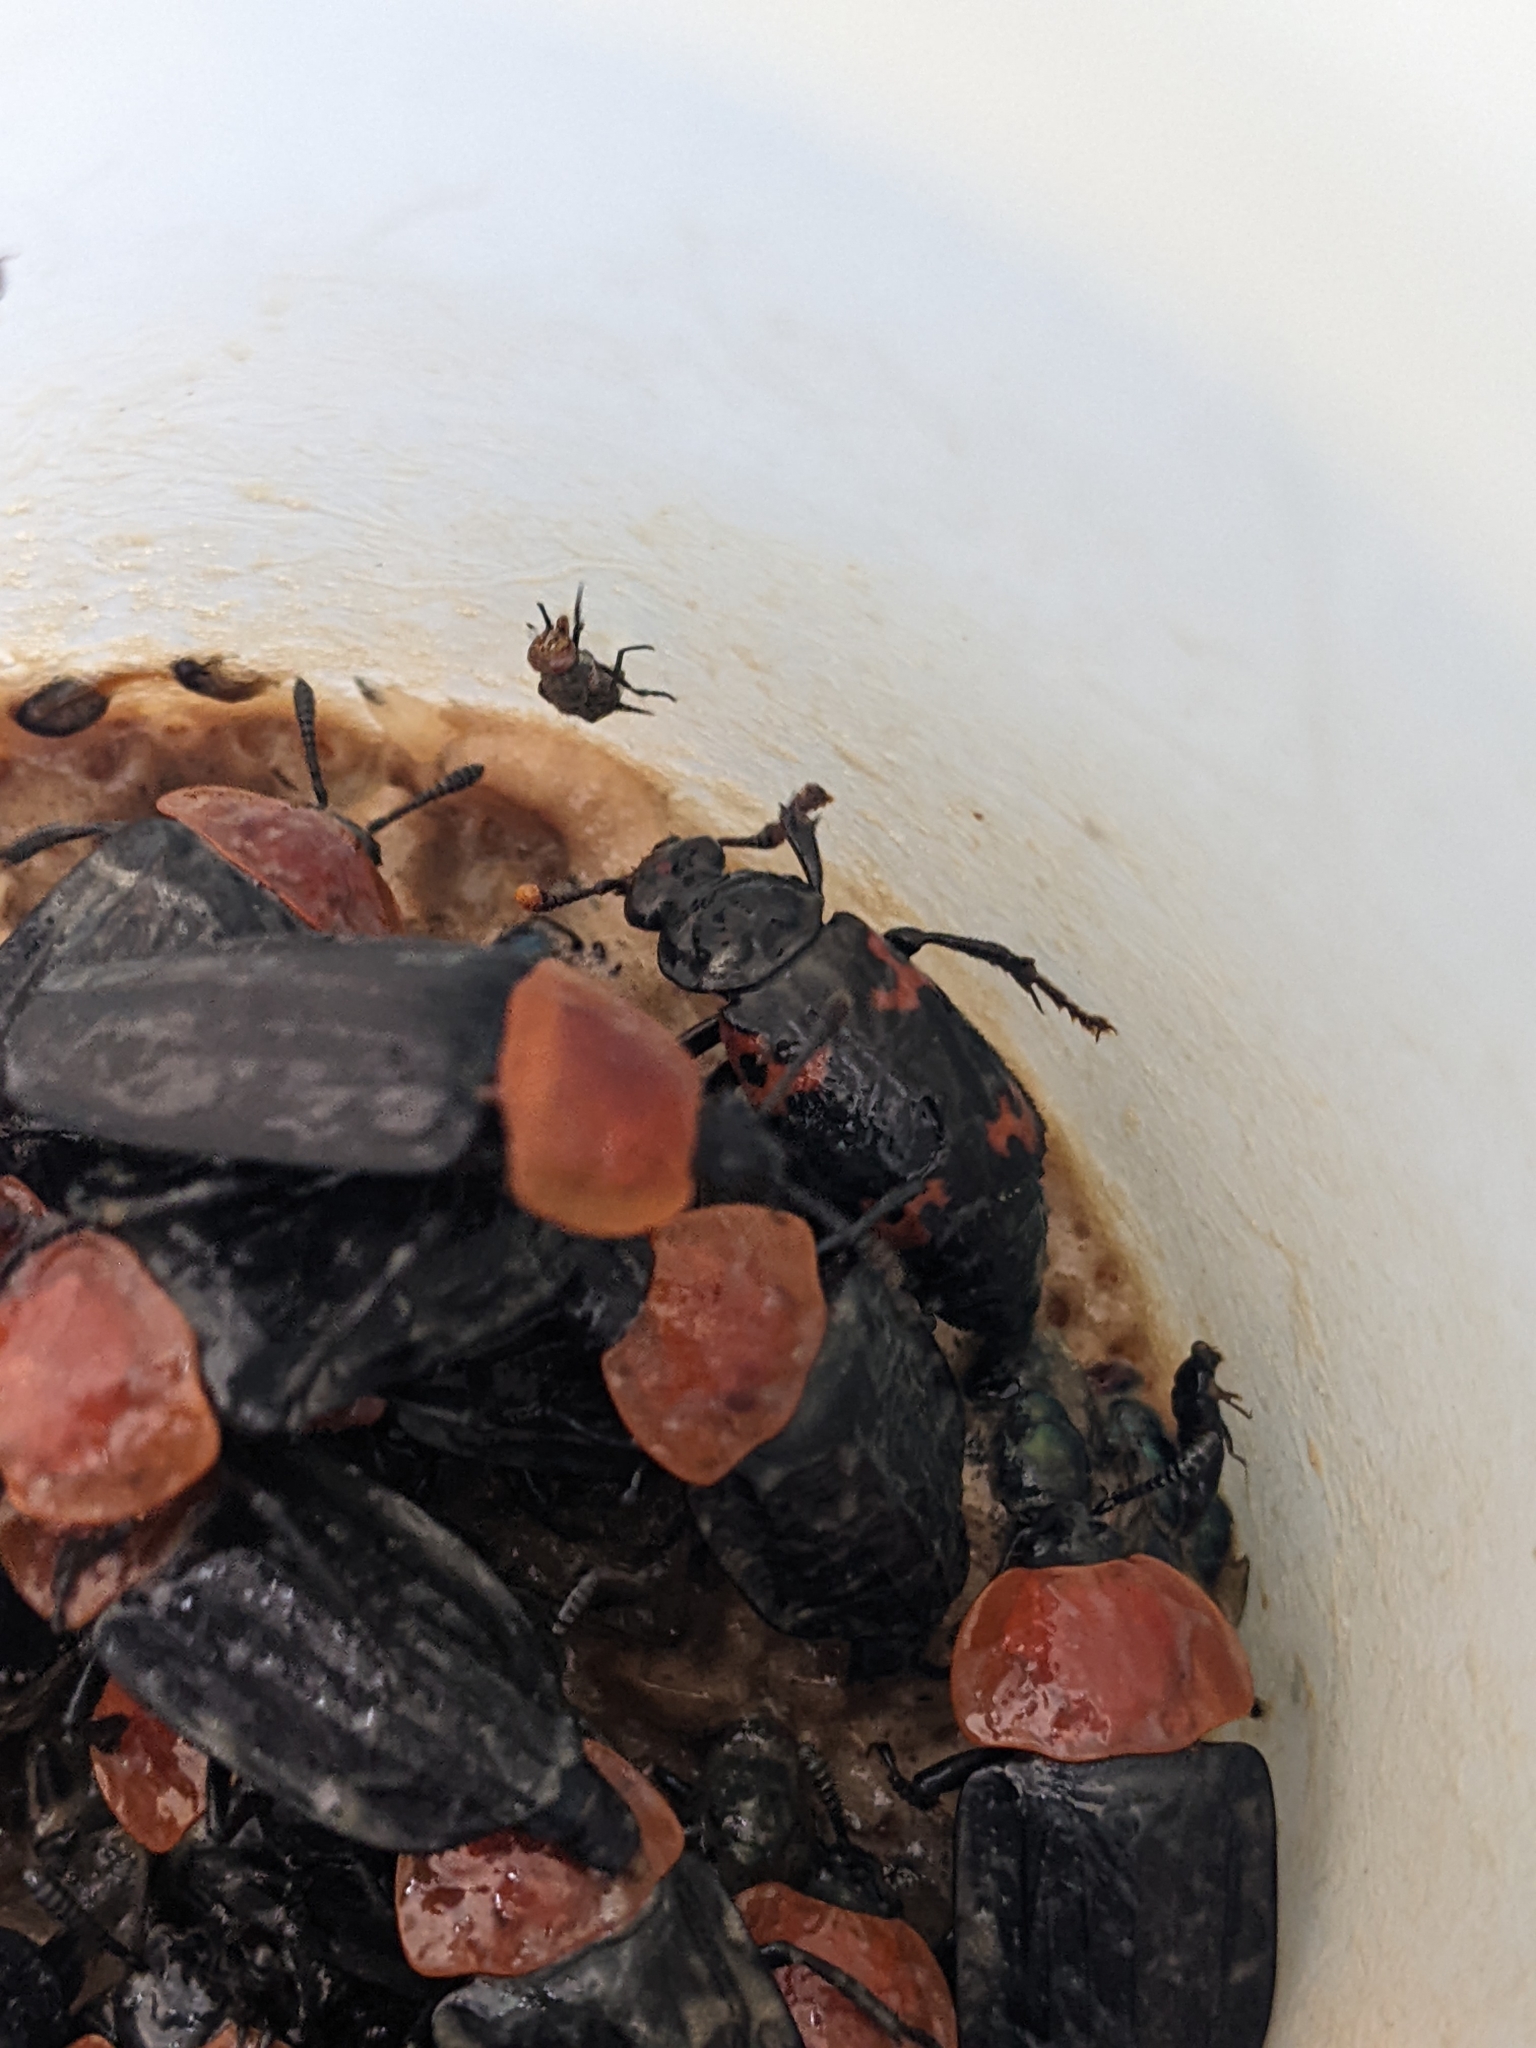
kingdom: Animalia
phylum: Arthropoda
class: Insecta
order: Coleoptera
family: Staphylinidae
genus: Nicrophorus
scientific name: Nicrophorus nepalensis
